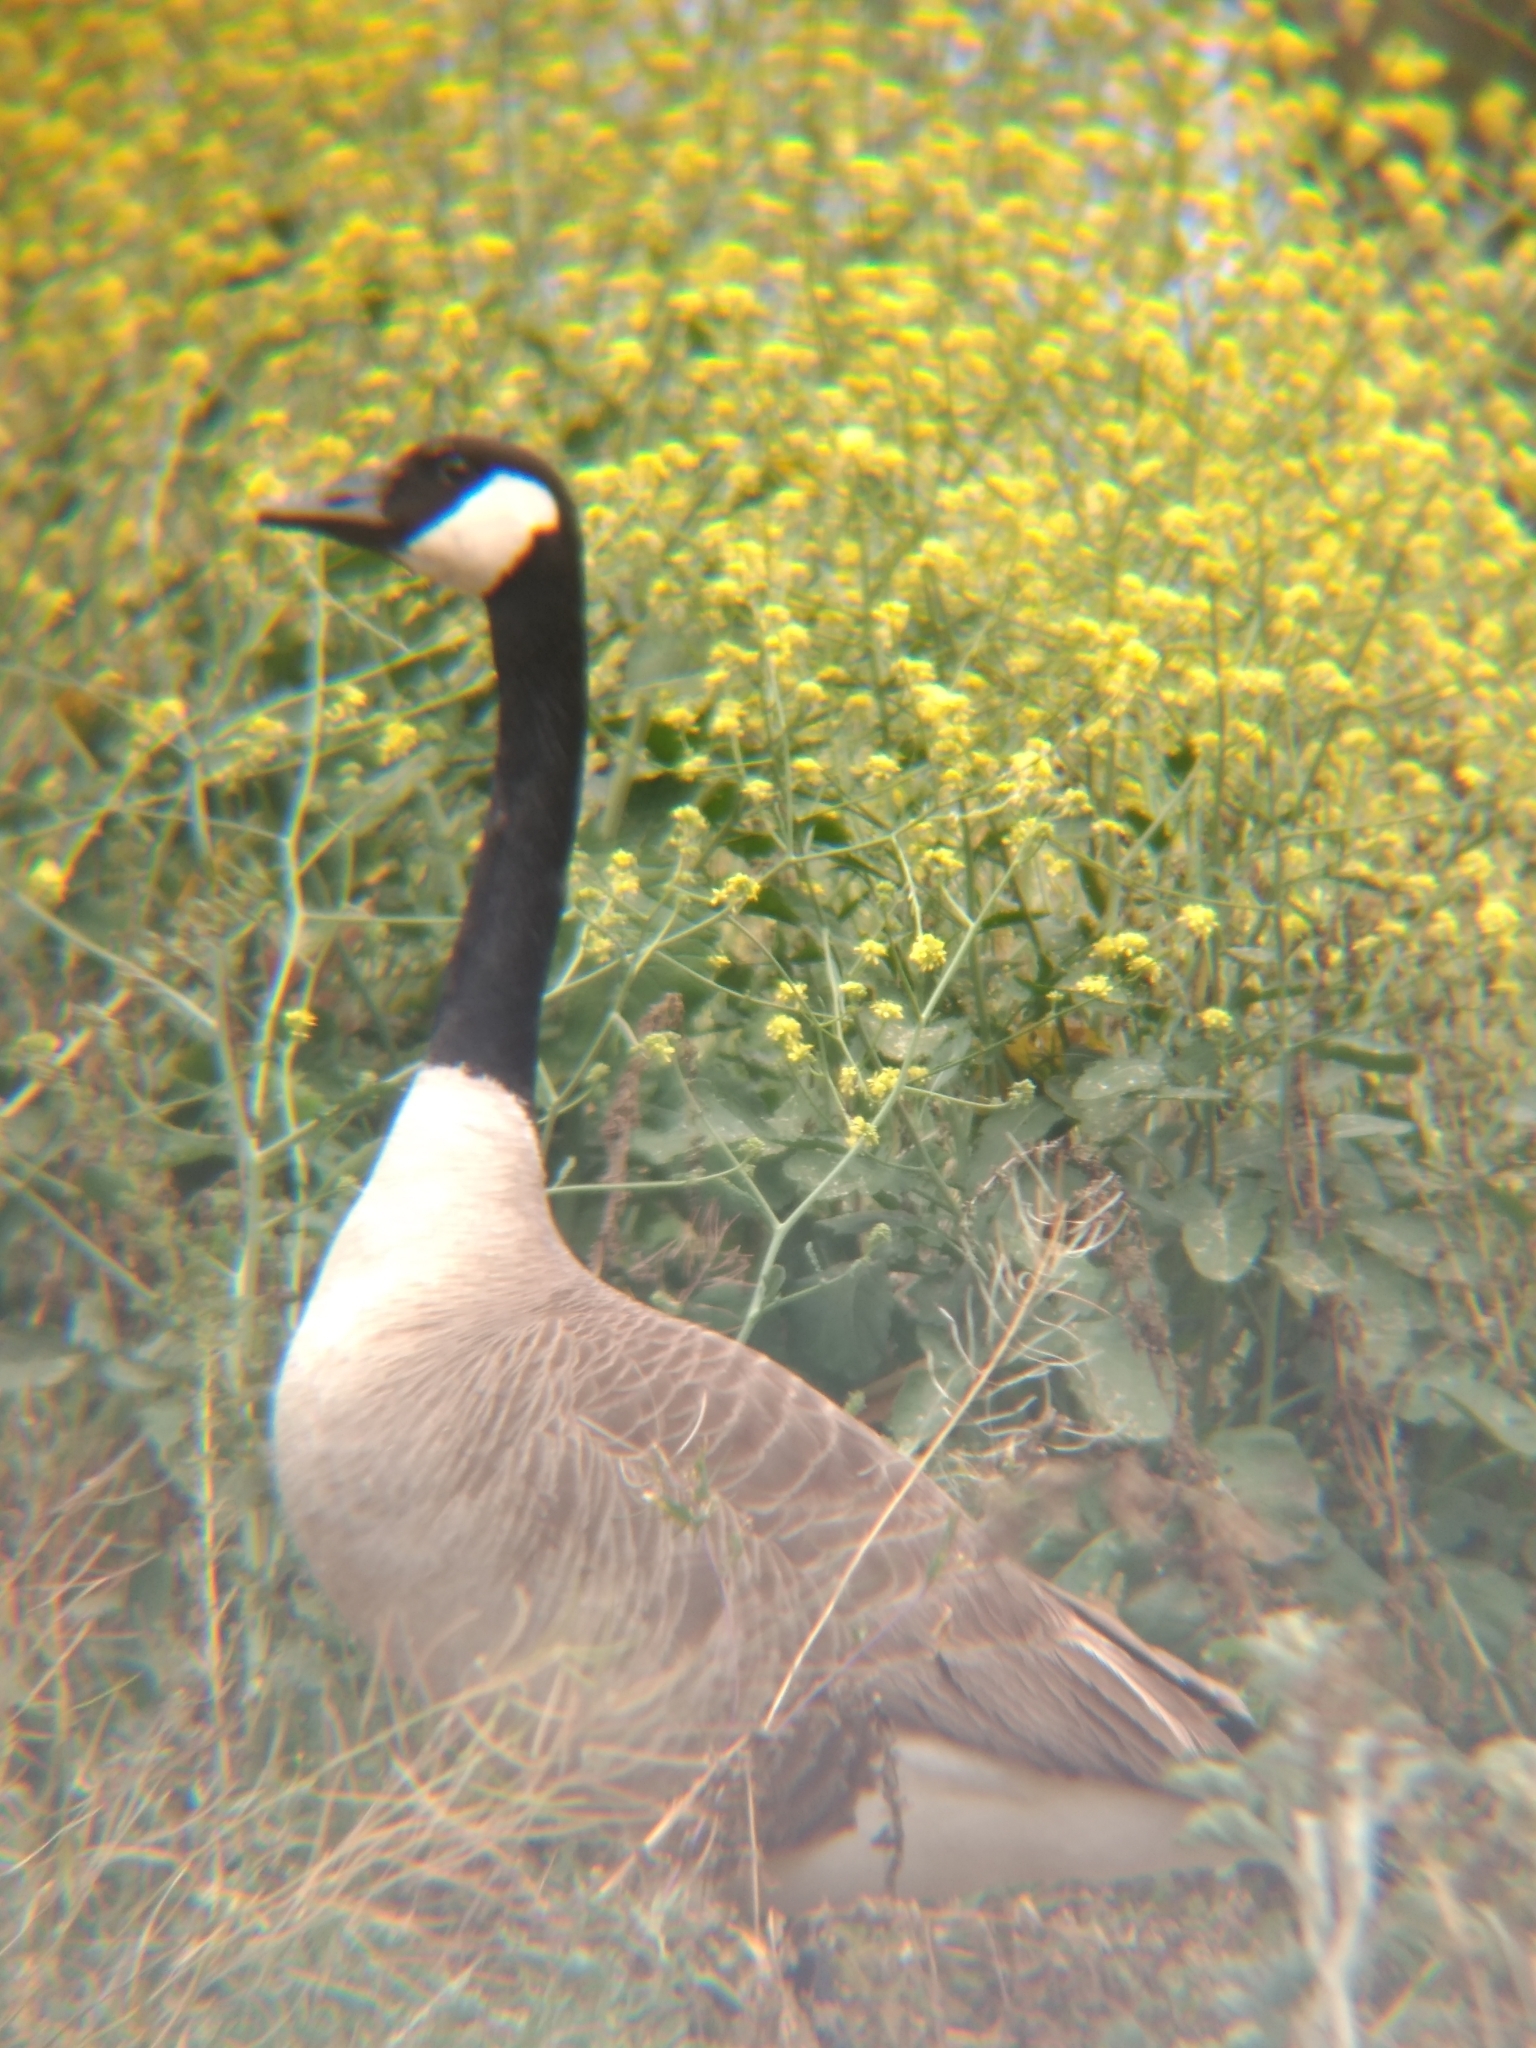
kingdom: Animalia
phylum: Chordata
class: Aves
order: Anseriformes
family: Anatidae
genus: Branta
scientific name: Branta canadensis
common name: Canada goose
